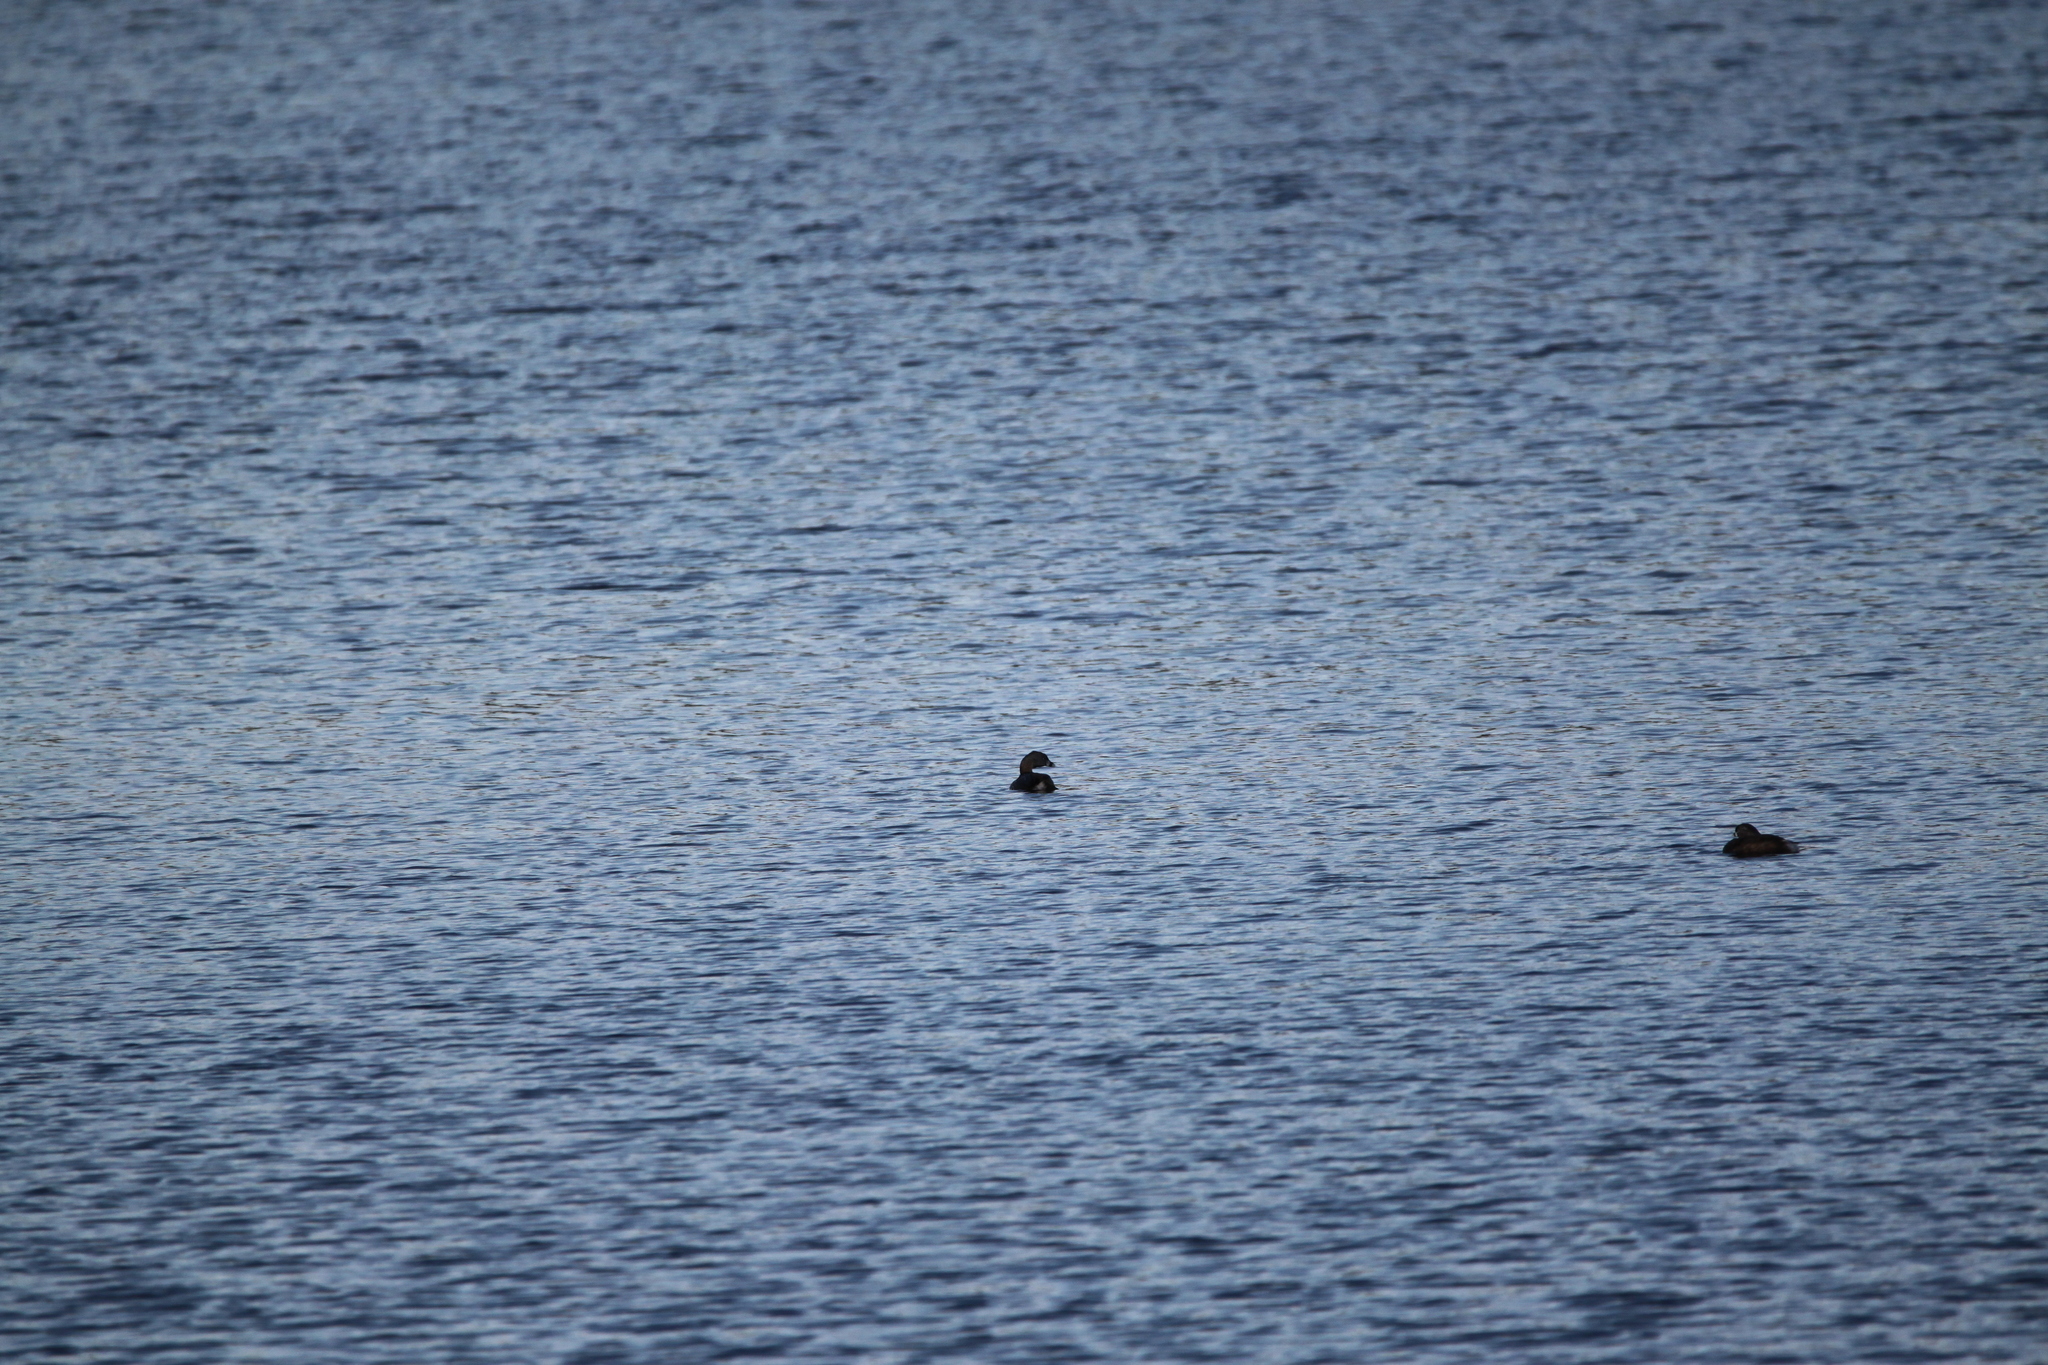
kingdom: Animalia
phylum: Chordata
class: Aves
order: Podicipediformes
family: Podicipedidae
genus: Podilymbus
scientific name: Podilymbus podiceps
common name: Pied-billed grebe
